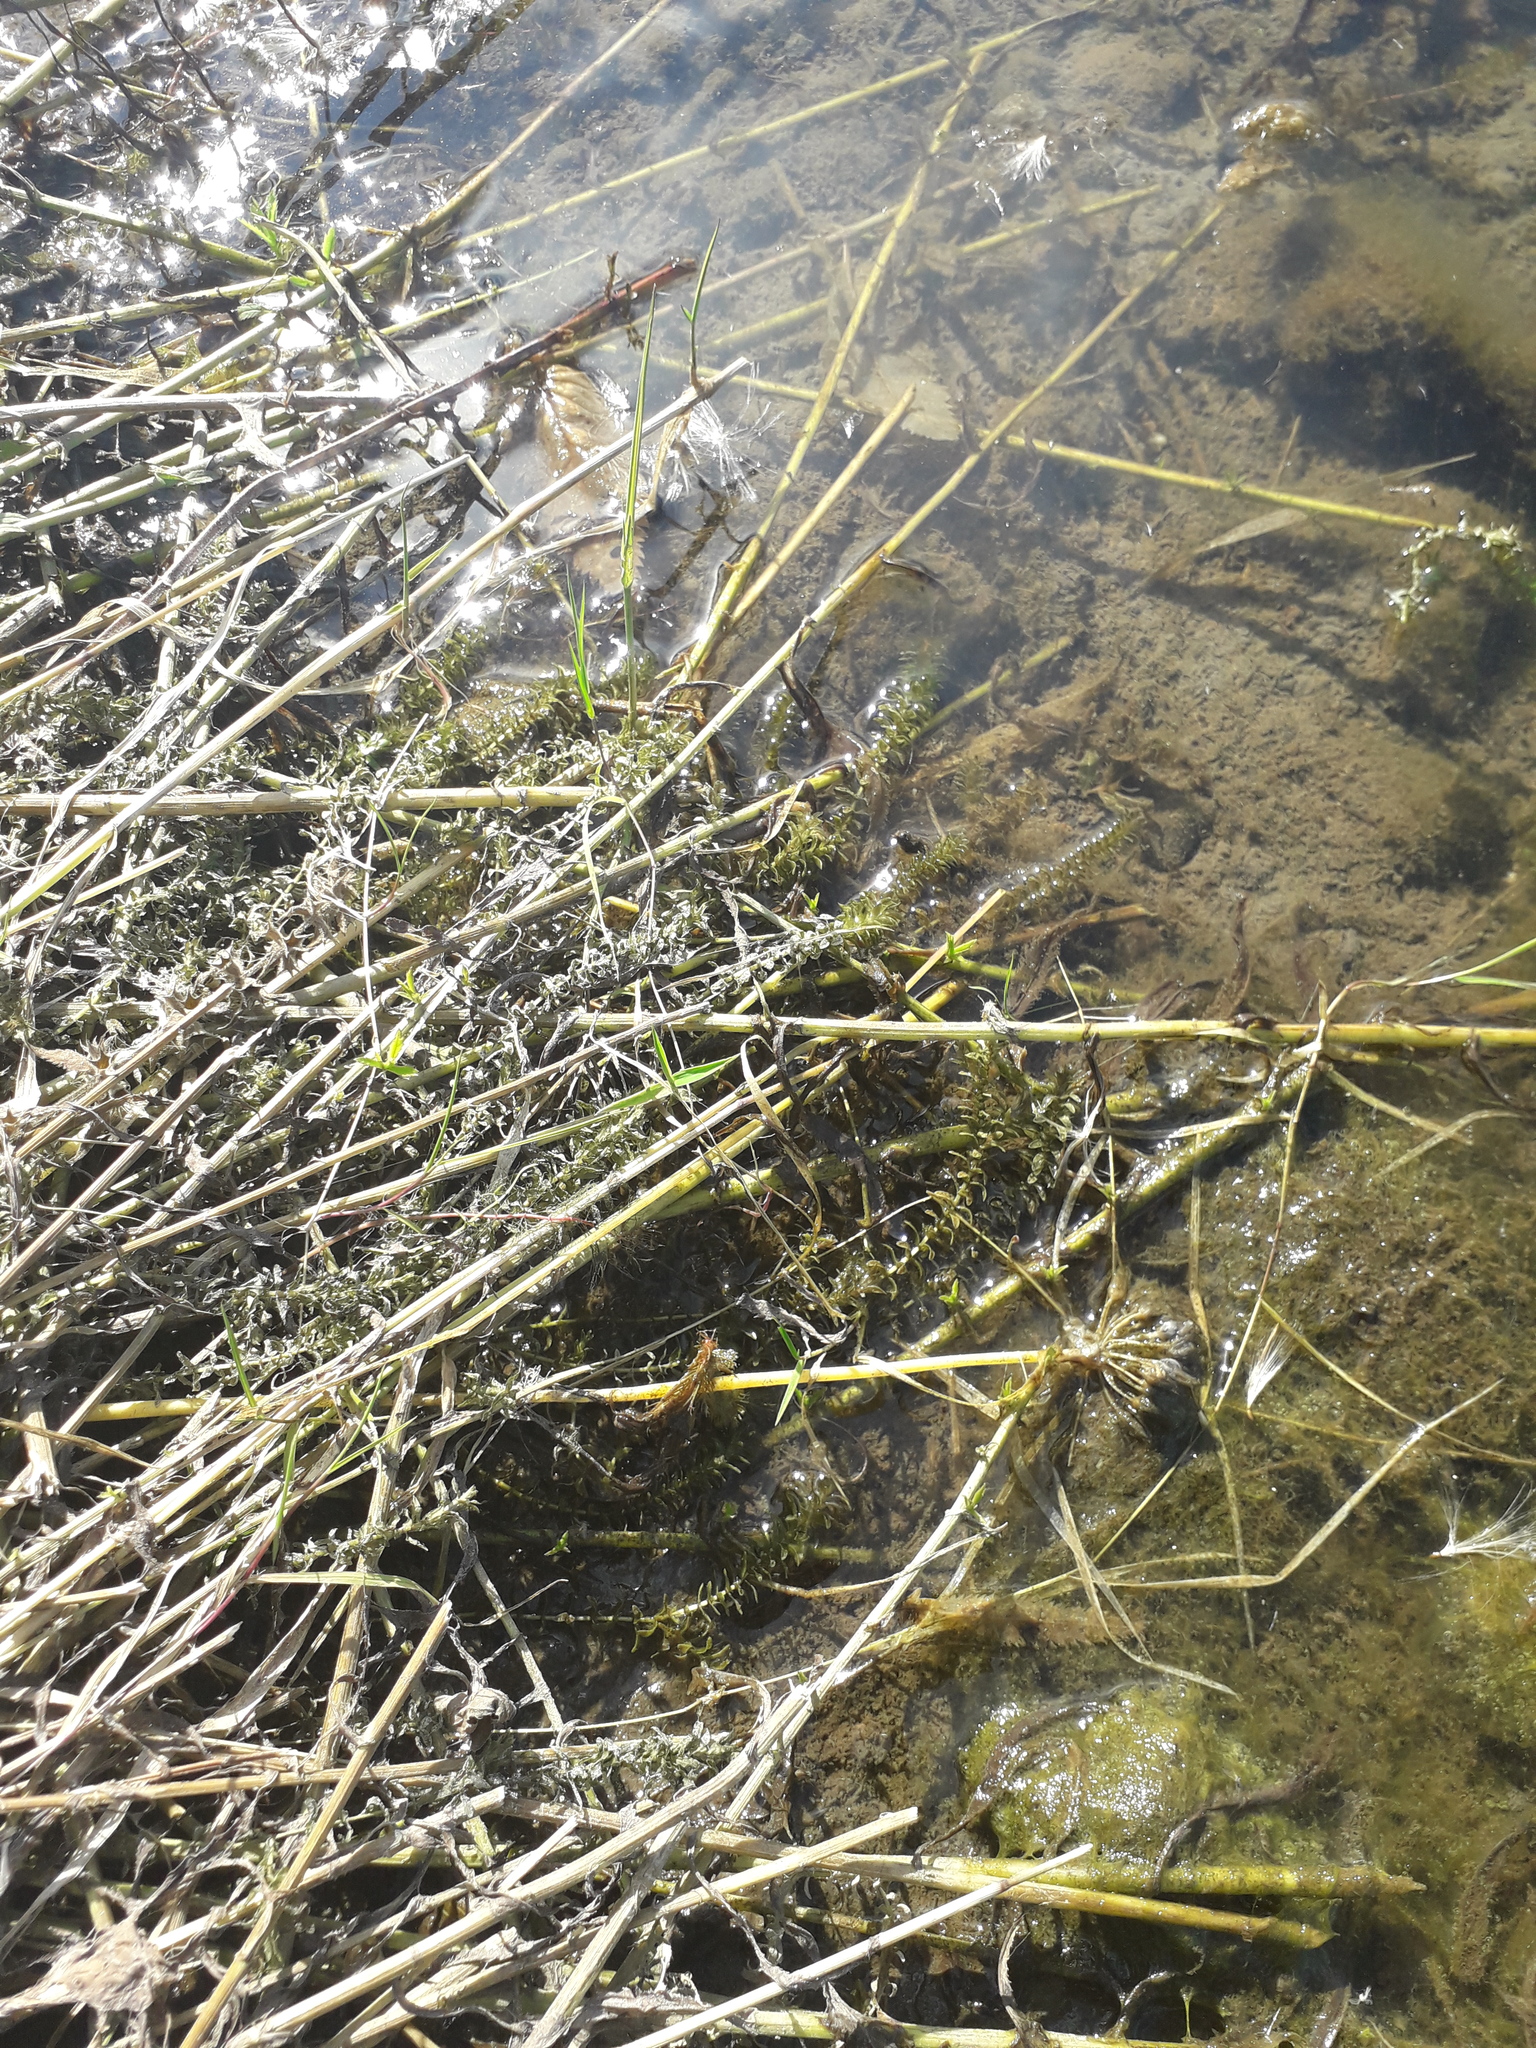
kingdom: Plantae
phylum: Tracheophyta
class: Liliopsida
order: Alismatales
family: Hydrocharitaceae
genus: Elodea
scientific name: Elodea canadensis
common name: Canadian waterweed
